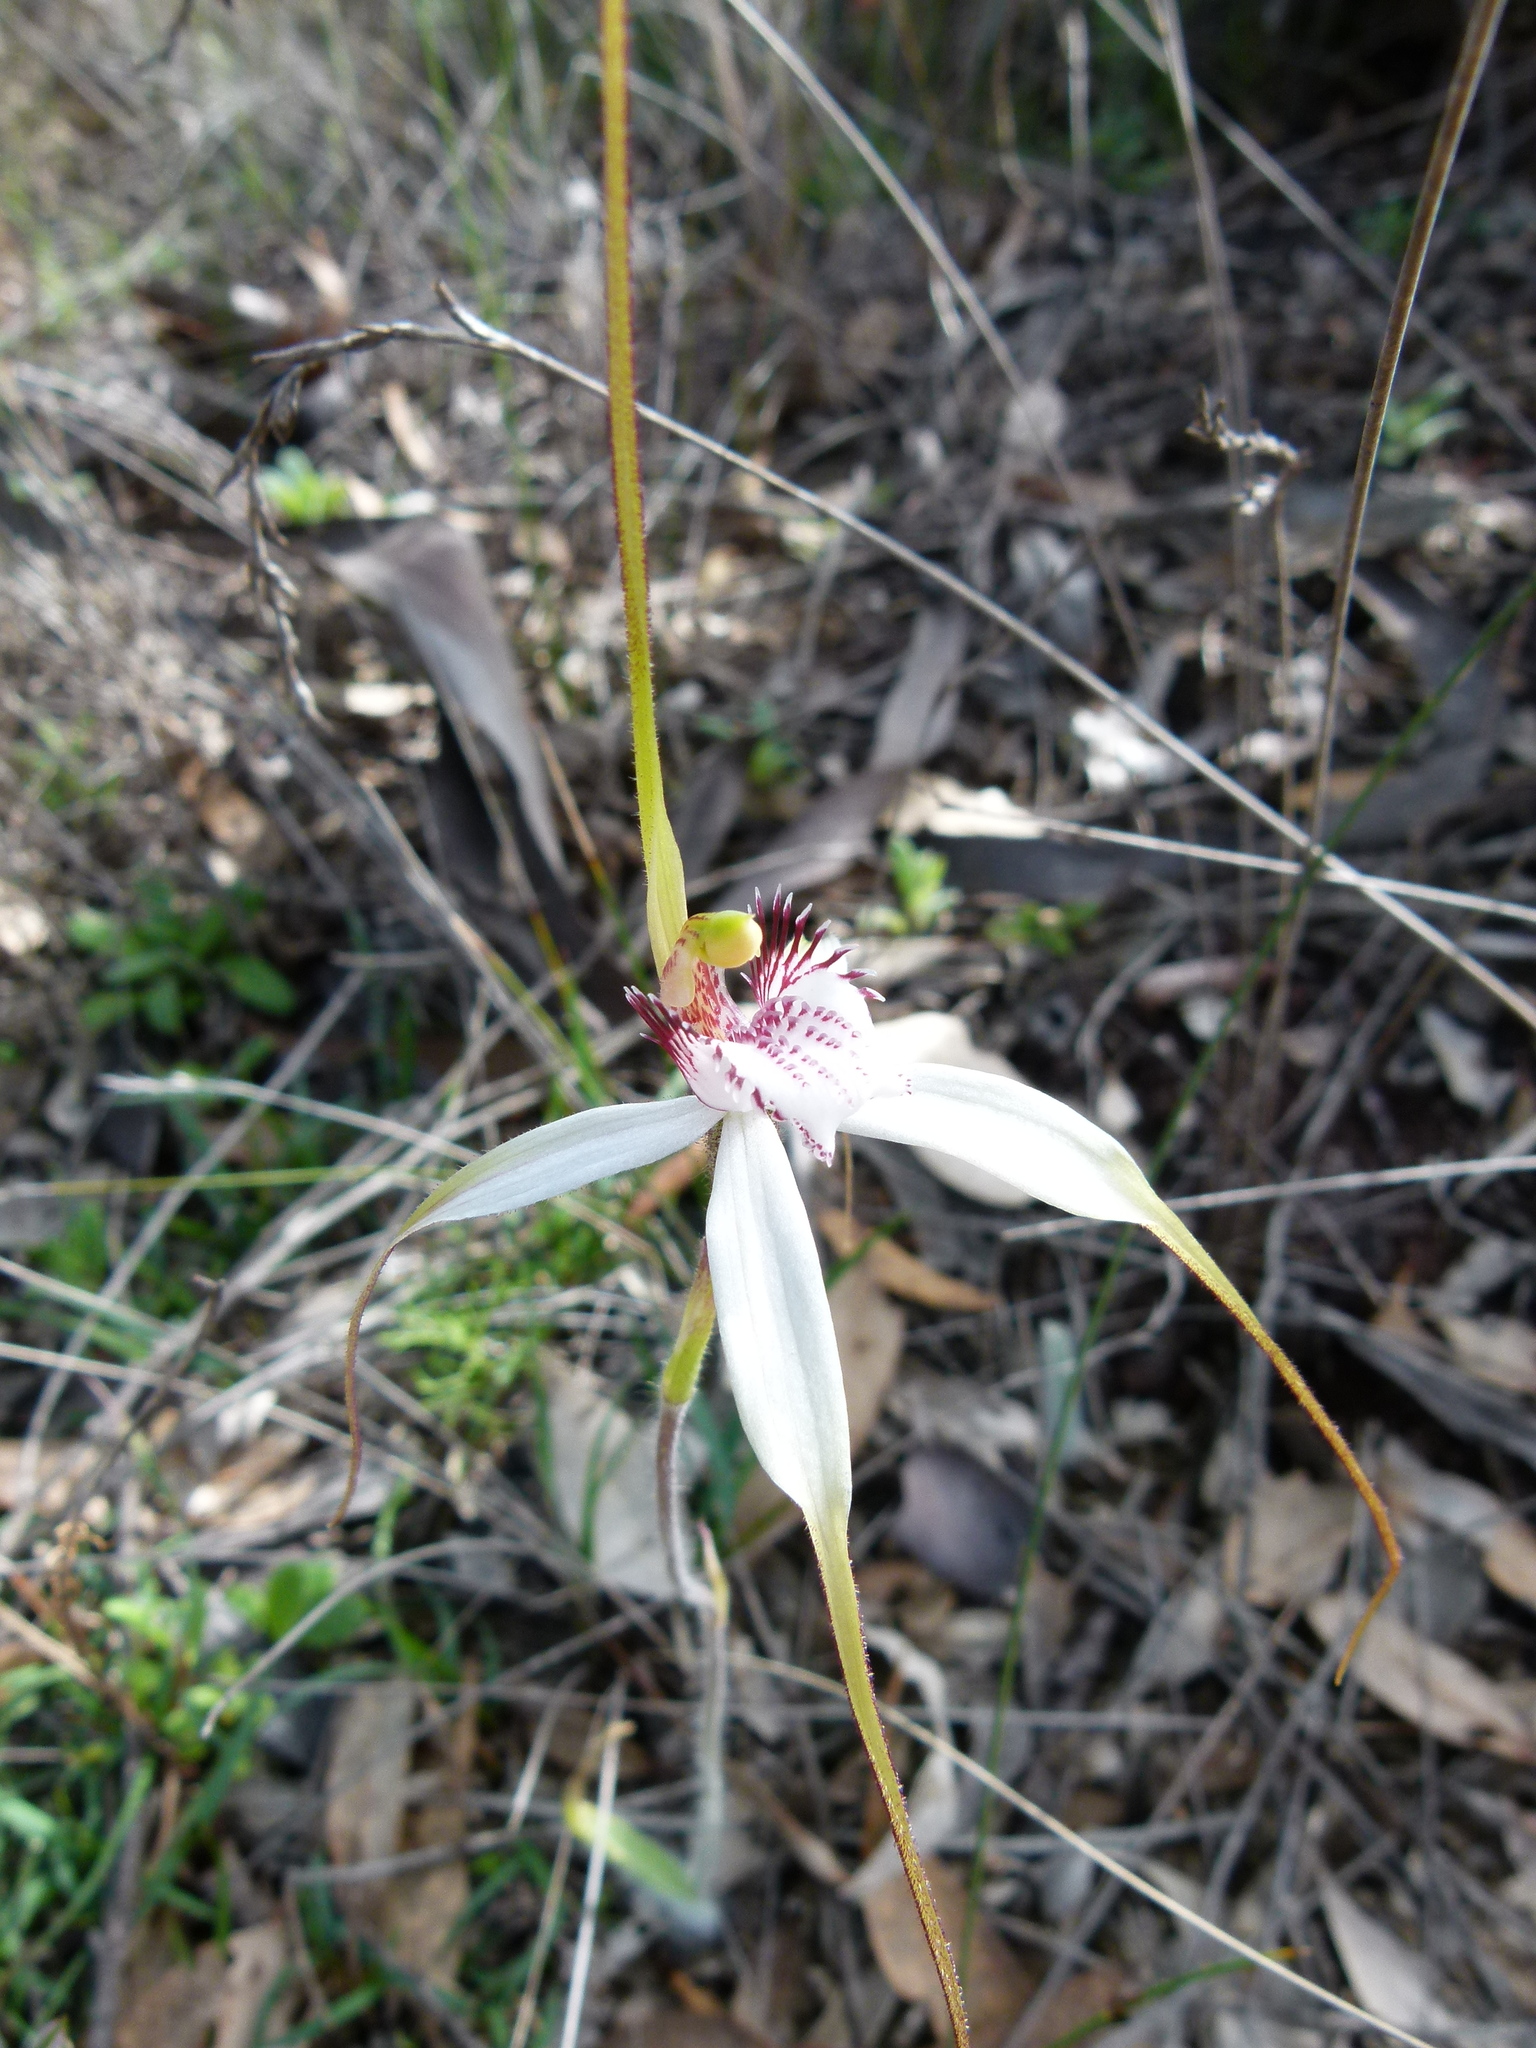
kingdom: Plantae
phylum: Tracheophyta
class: Liliopsida
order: Asparagales
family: Orchidaceae
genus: Caladenia
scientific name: Caladenia longicauda
